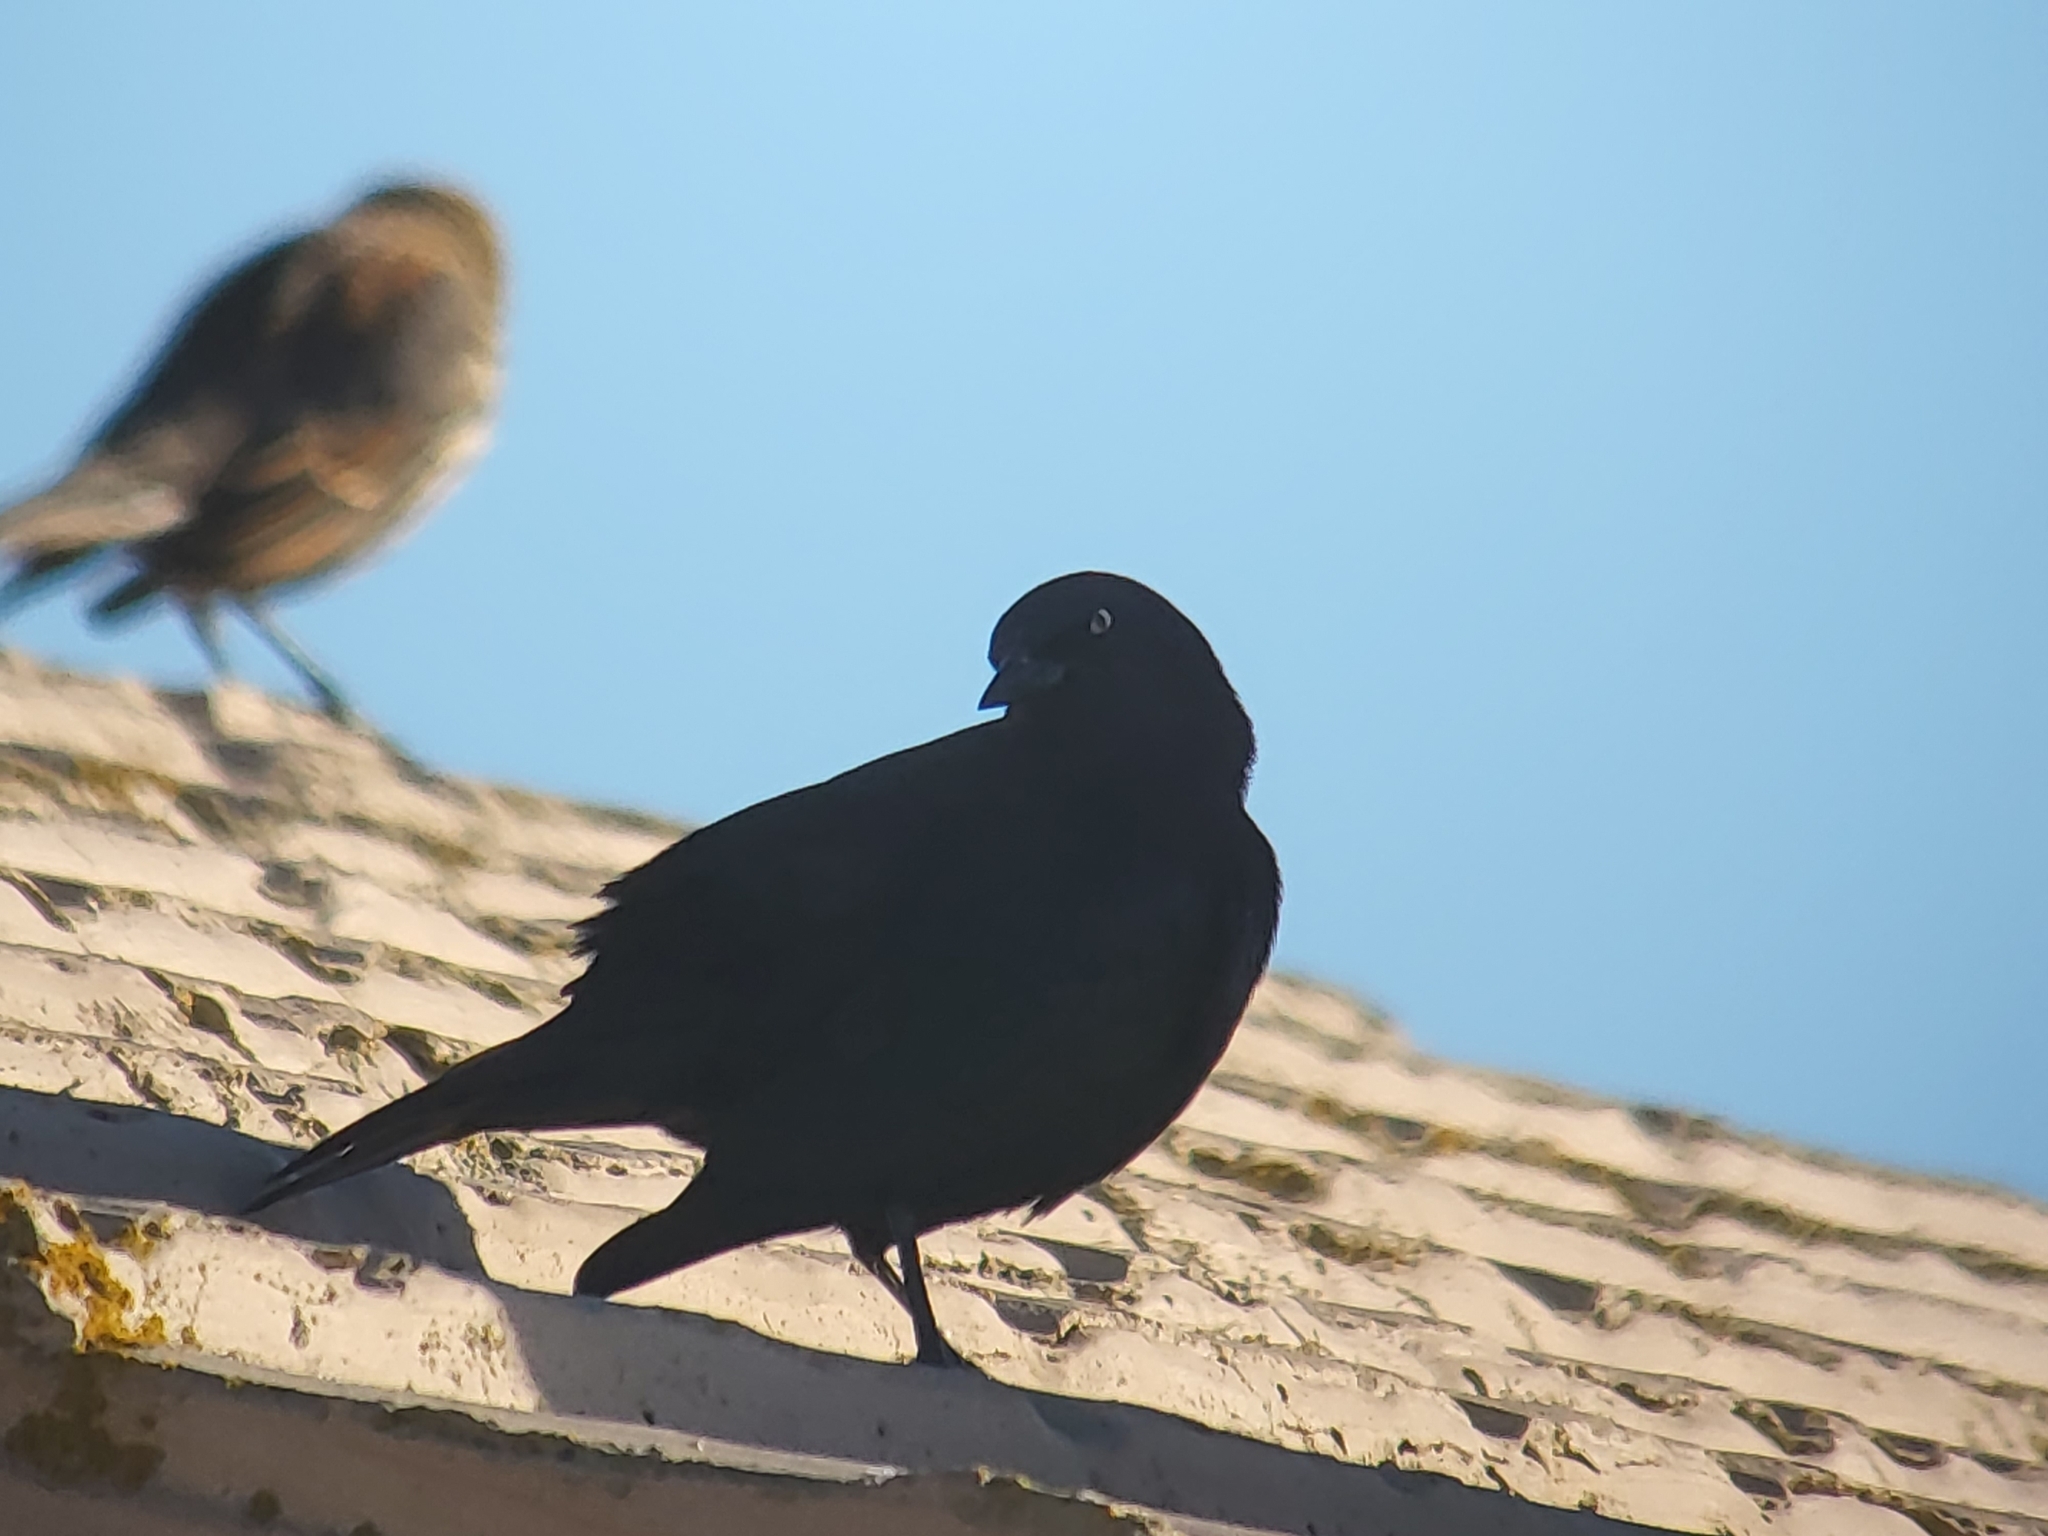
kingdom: Animalia
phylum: Chordata
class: Aves
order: Passeriformes
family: Icteridae
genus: Euphagus
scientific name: Euphagus cyanocephalus
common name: Brewer's blackbird
